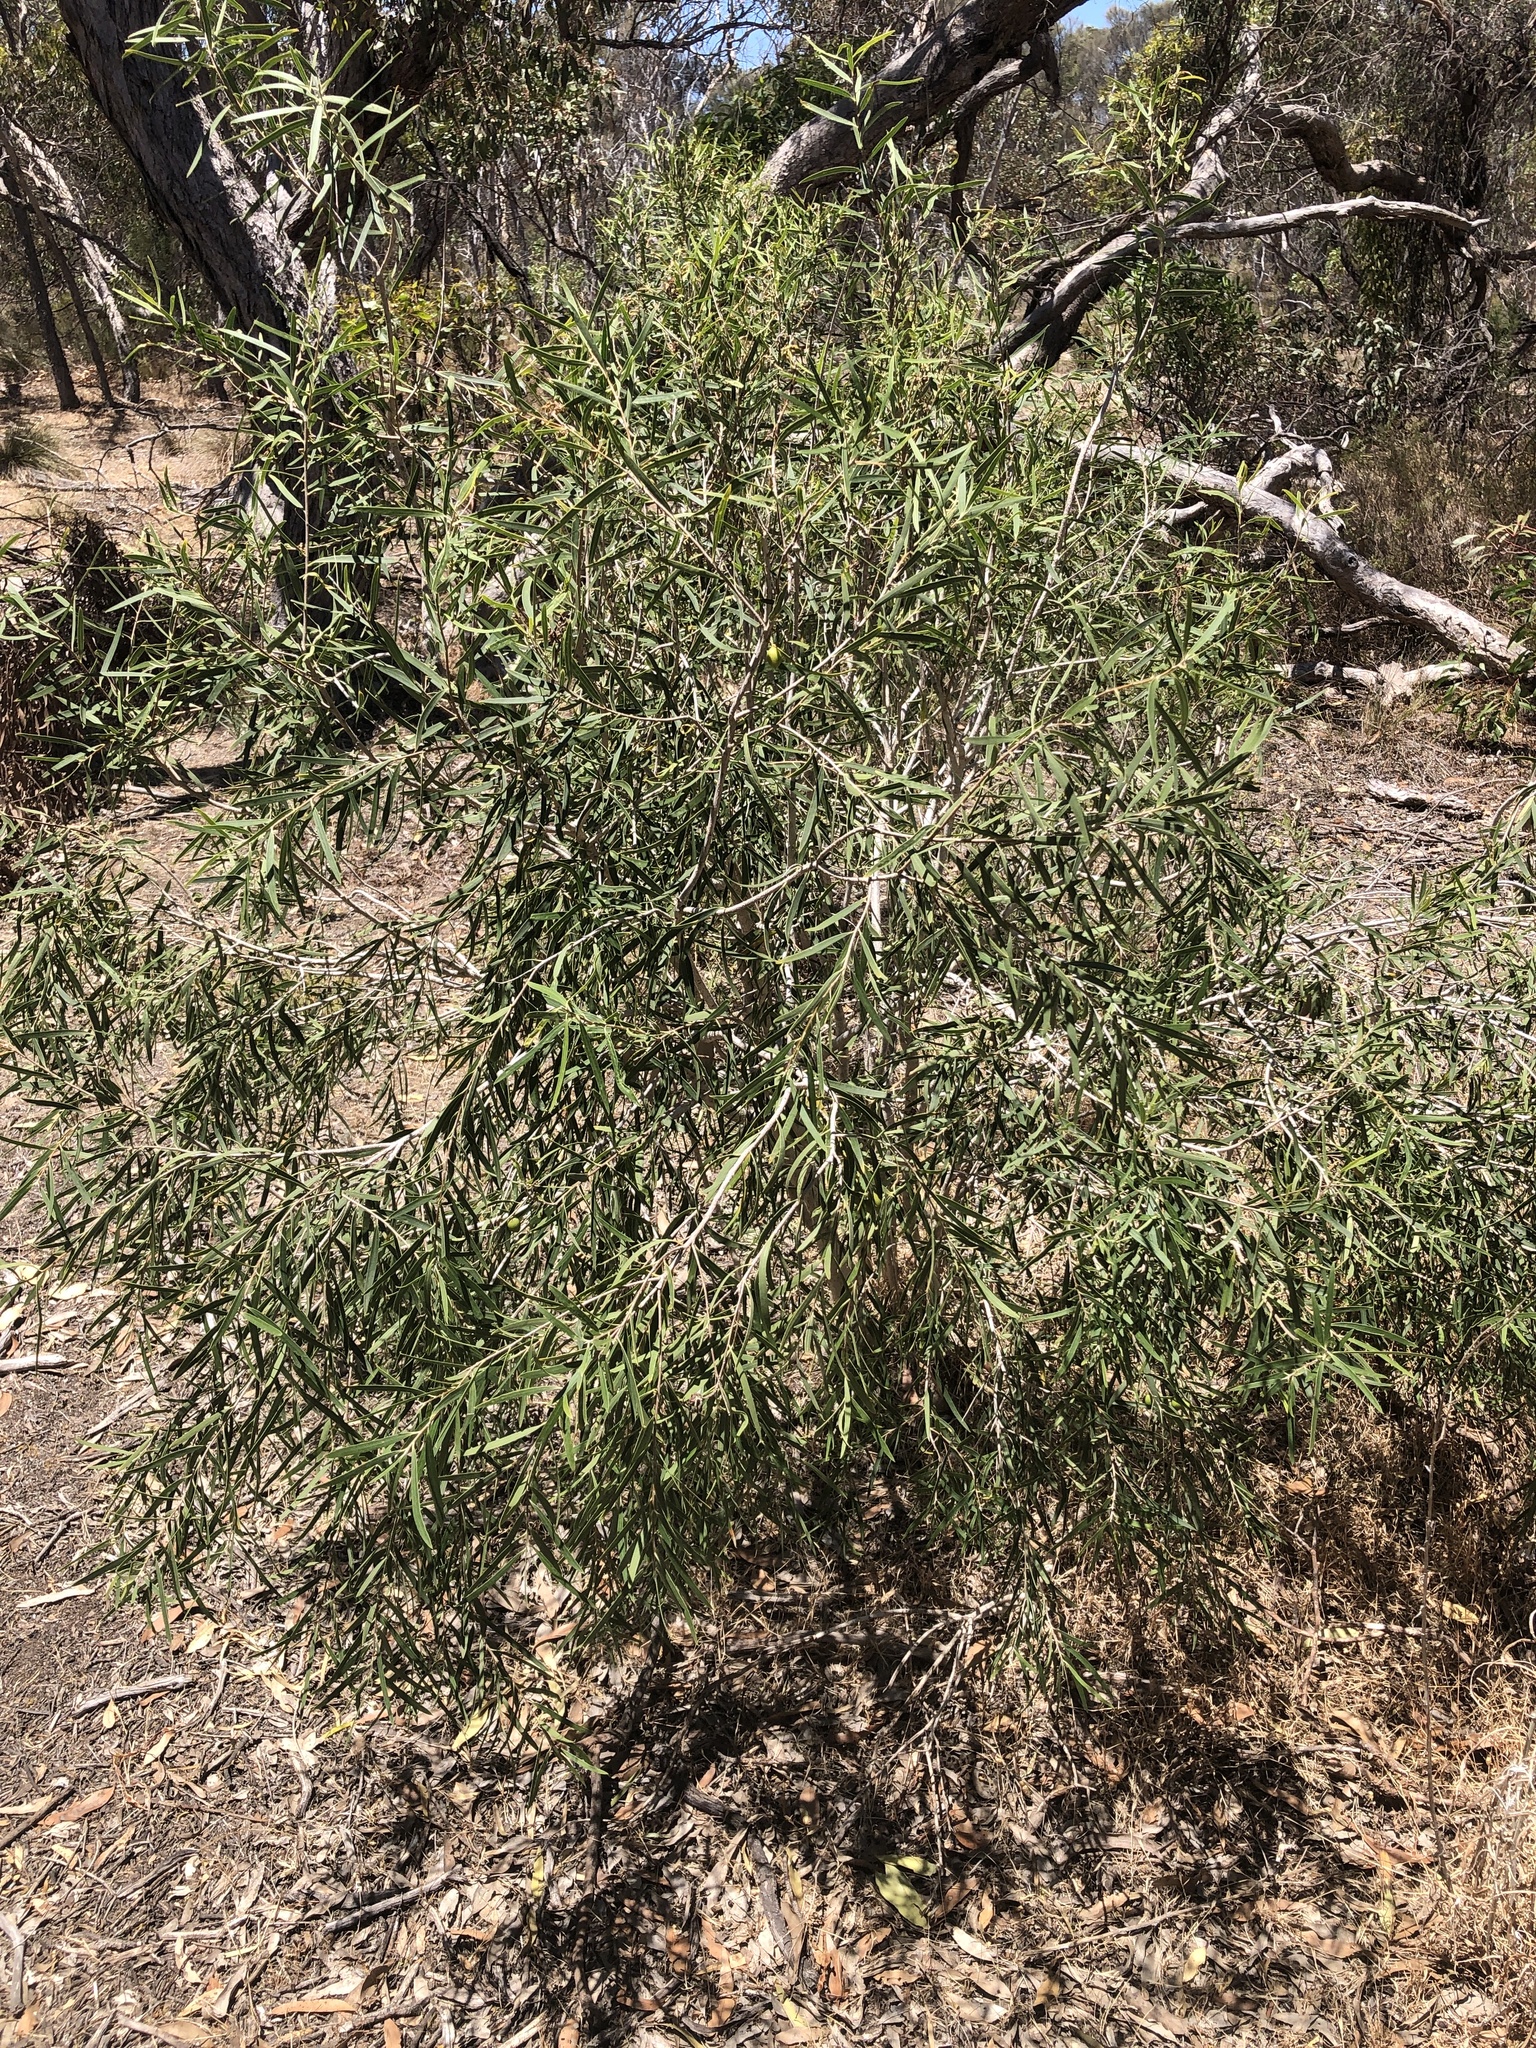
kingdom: Plantae
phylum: Tracheophyta
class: Magnoliopsida
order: Apiales
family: Pittosporaceae
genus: Pittosporum
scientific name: Pittosporum angustifolium
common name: Weeping pittosporum
